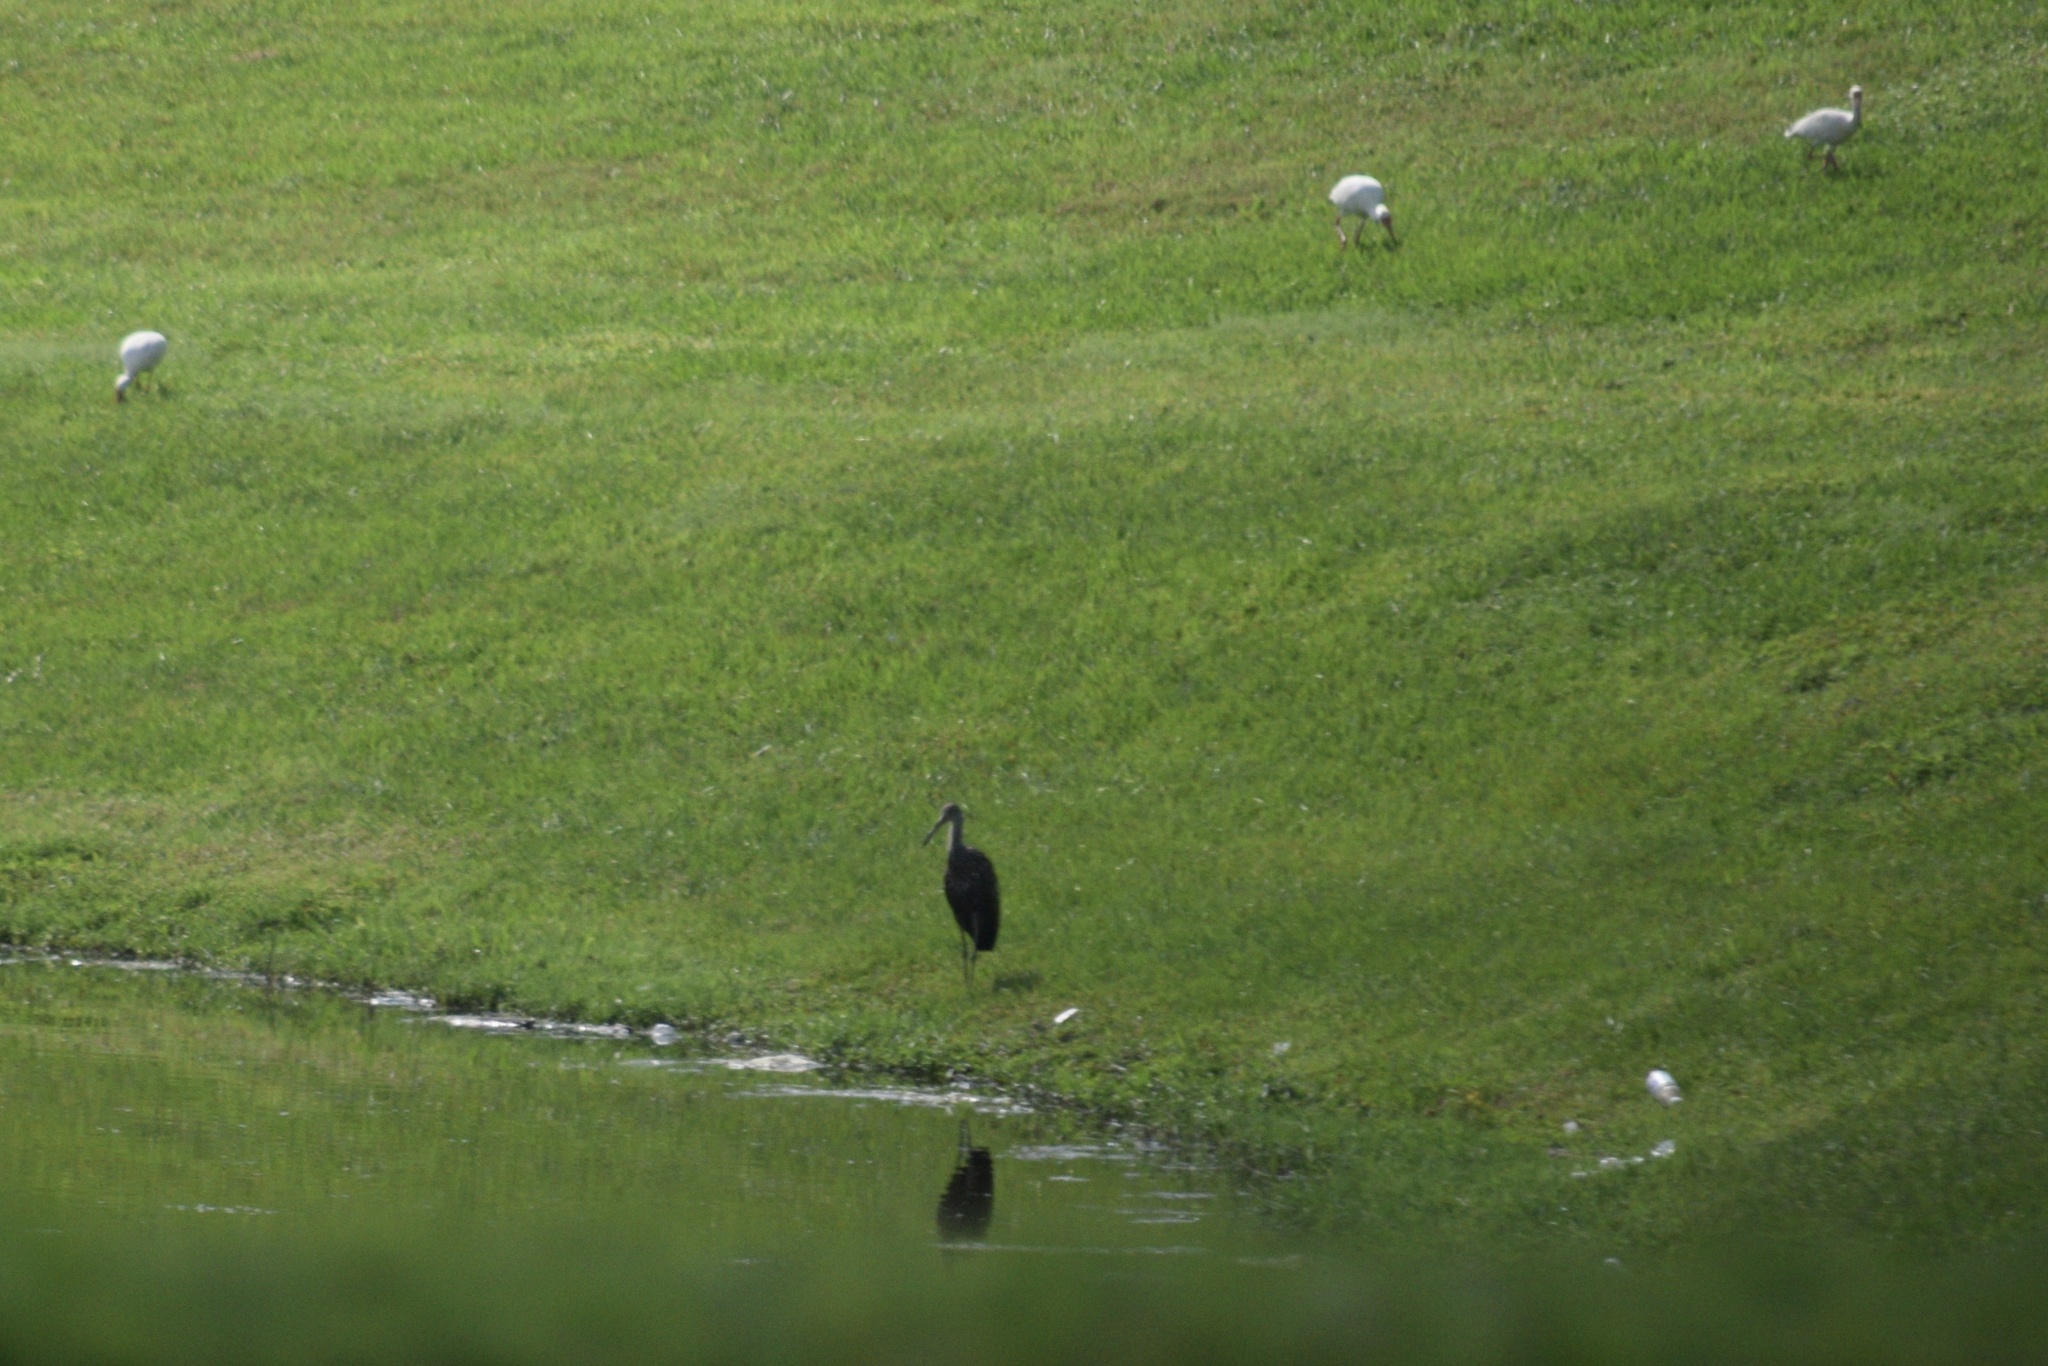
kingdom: Animalia
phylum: Chordata
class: Aves
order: Gruiformes
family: Aramidae
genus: Aramus
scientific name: Aramus guarauna
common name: Limpkin
